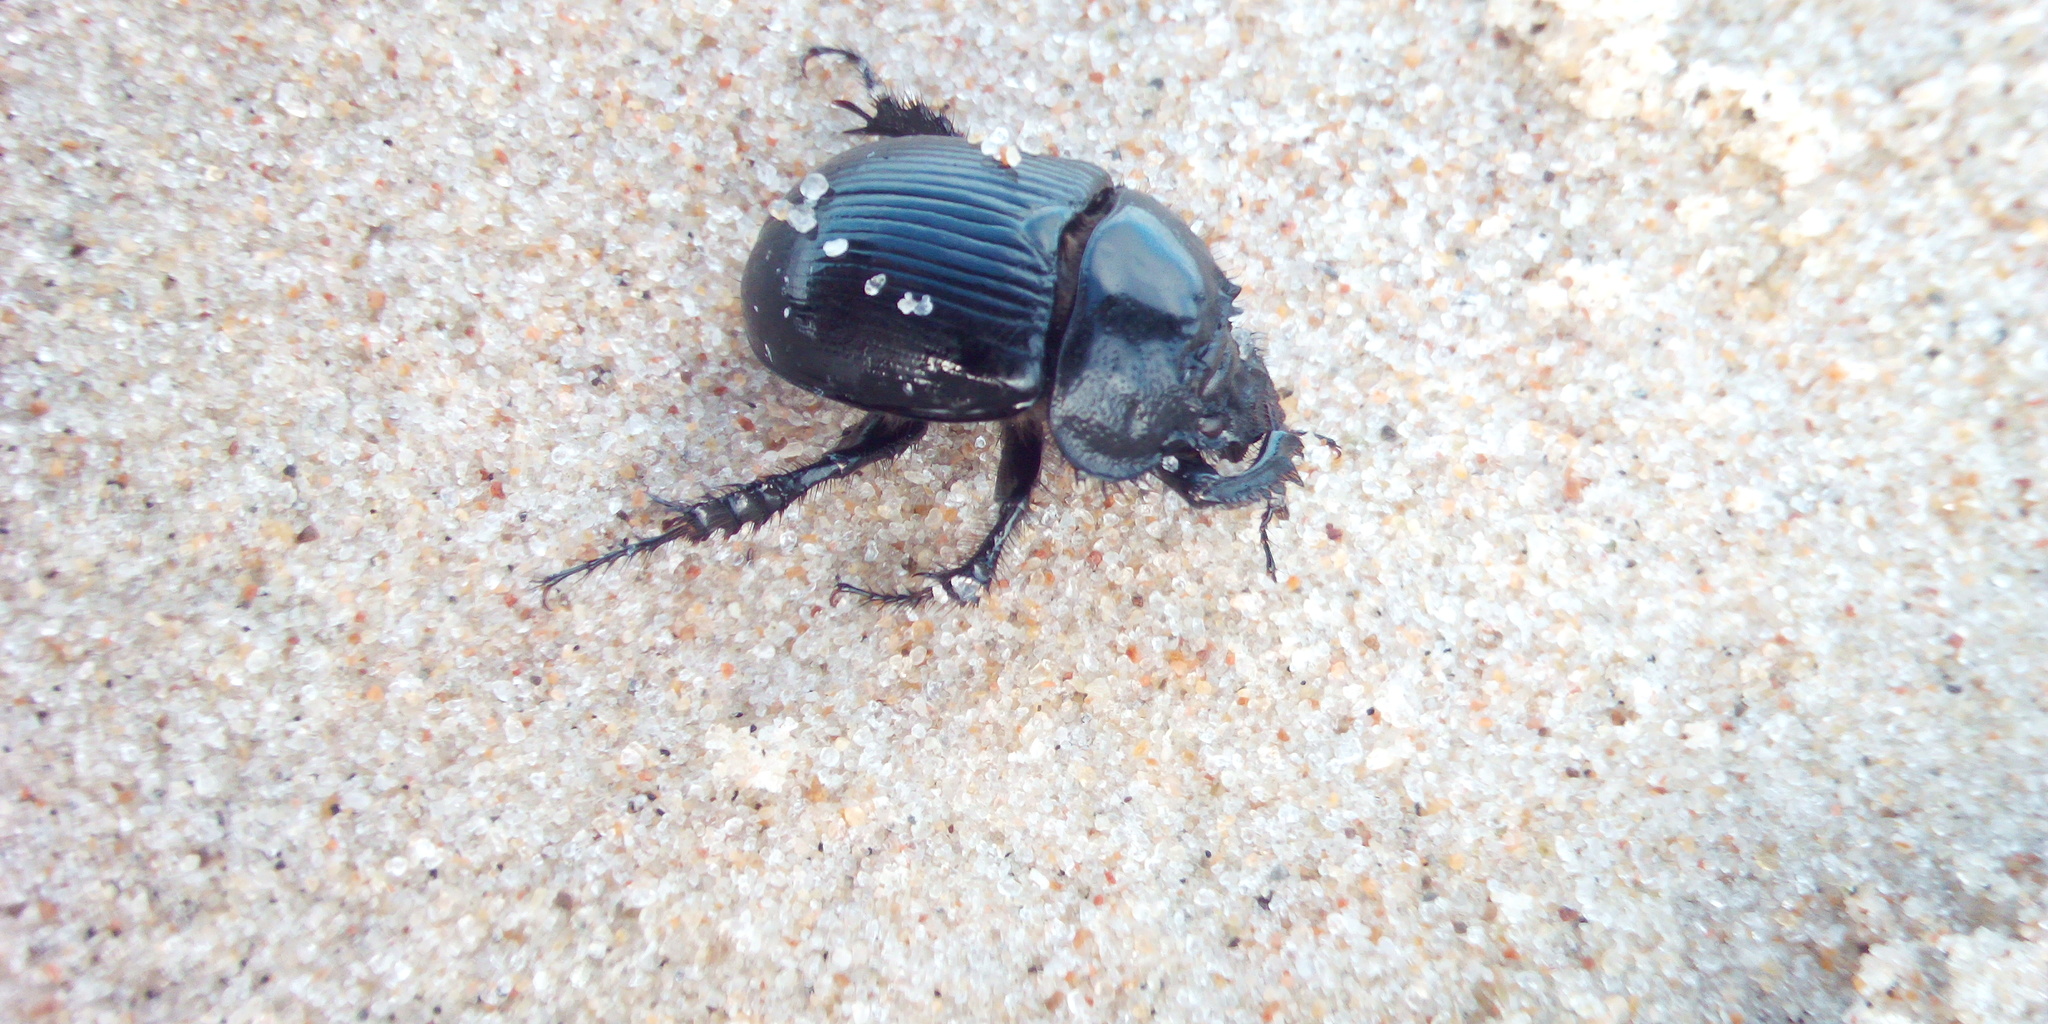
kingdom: Animalia
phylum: Arthropoda
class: Insecta
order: Coleoptera
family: Geotrupidae
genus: Typhaeus
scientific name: Typhaeus typhoeus
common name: Minotaur beetle
